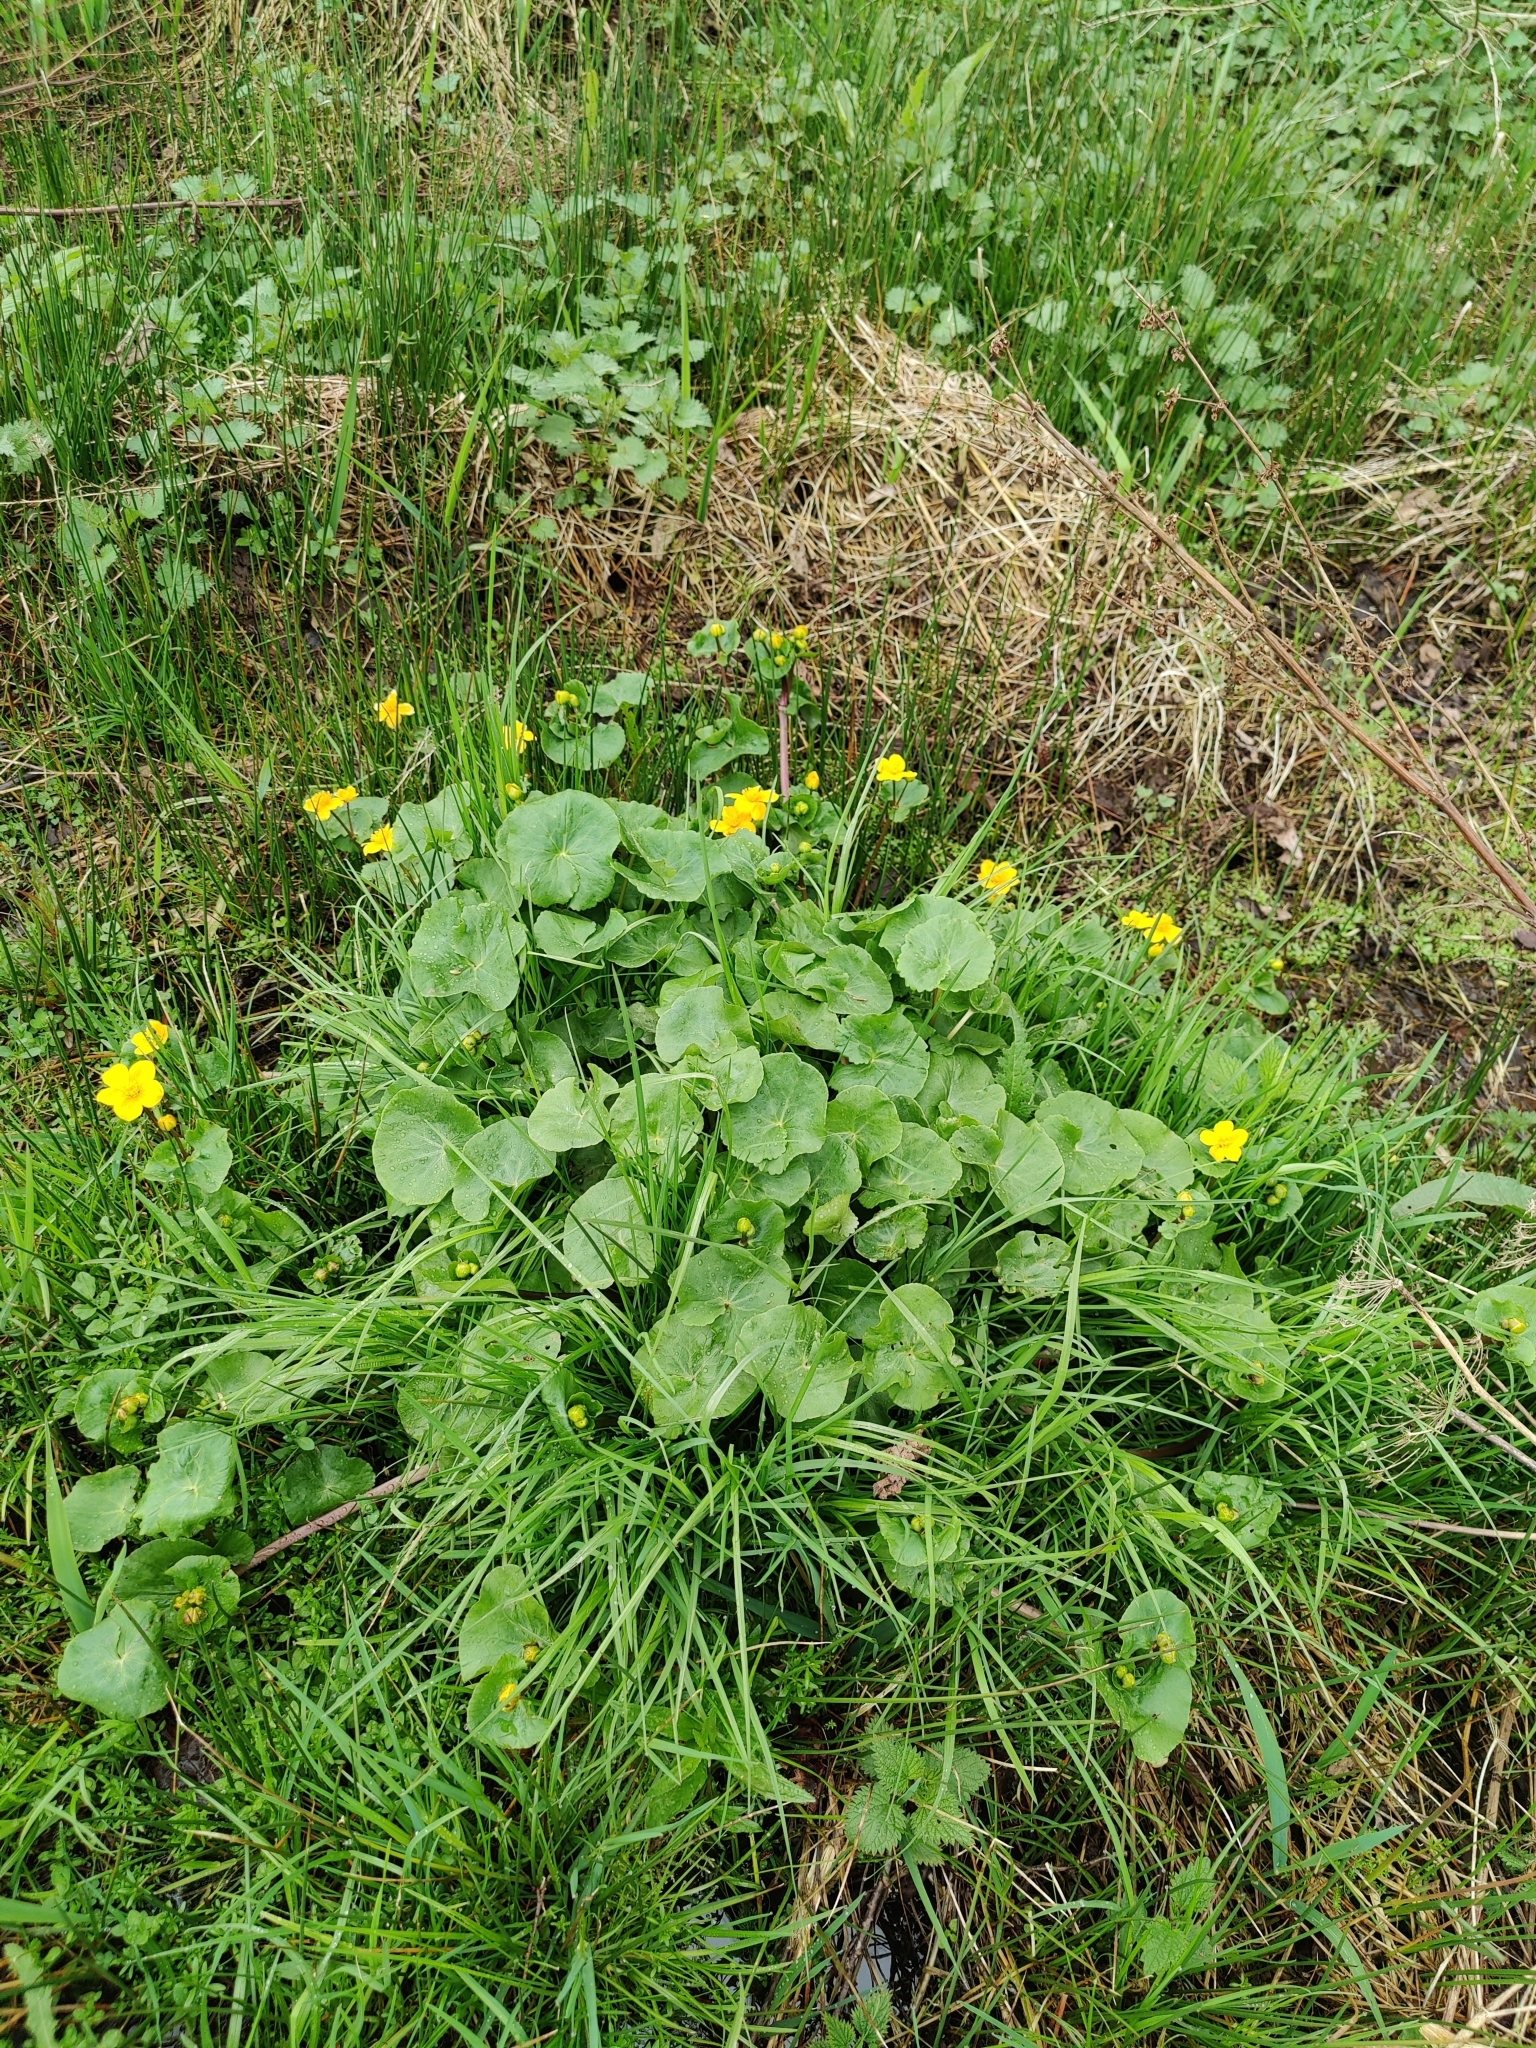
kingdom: Plantae
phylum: Tracheophyta
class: Magnoliopsida
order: Ranunculales
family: Ranunculaceae
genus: Caltha
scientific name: Caltha palustris
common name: Marsh marigold
